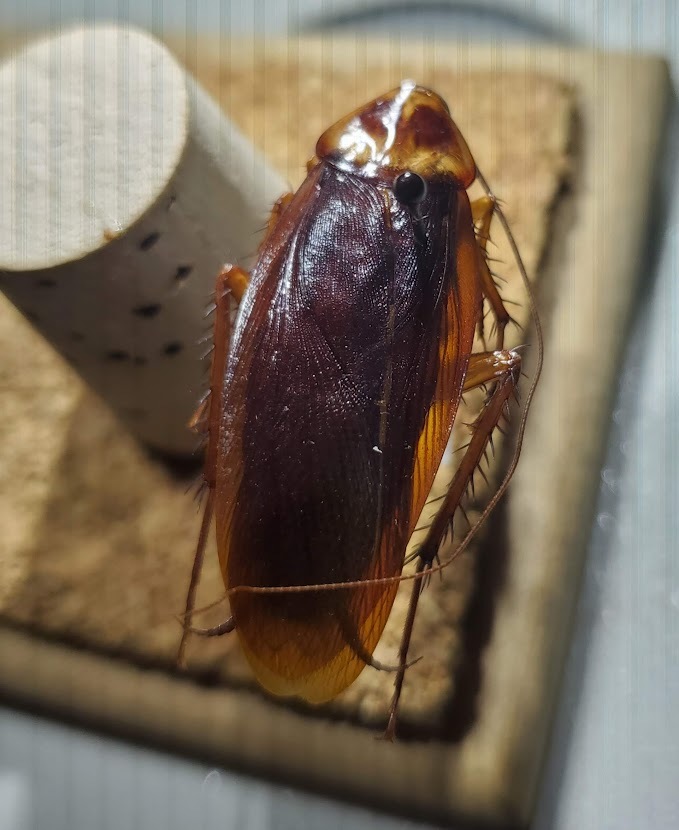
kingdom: Animalia
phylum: Arthropoda
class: Insecta
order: Blattodea
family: Blattidae
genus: Periplaneta
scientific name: Periplaneta americana
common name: American cockroach
